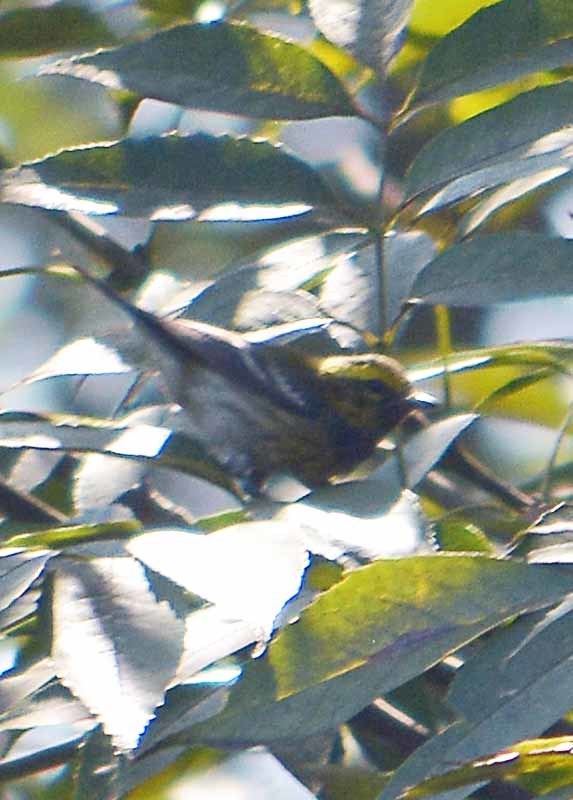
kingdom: Animalia
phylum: Chordata
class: Aves
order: Passeriformes
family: Parulidae
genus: Setophaga
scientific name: Setophaga townsendi
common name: Townsend's warbler
